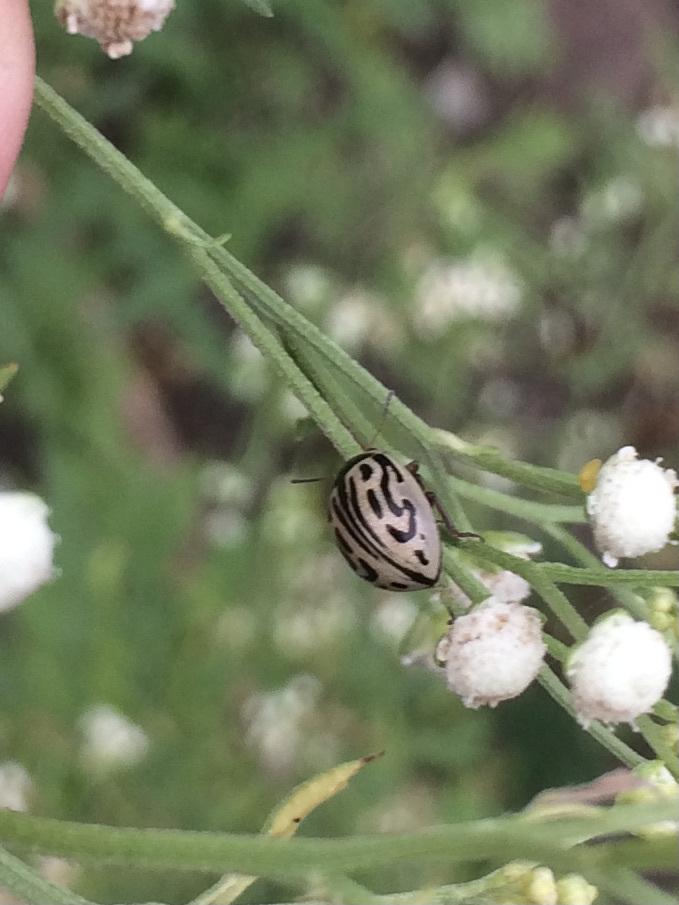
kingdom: Animalia
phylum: Arthropoda
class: Insecta
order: Coleoptera
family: Chrysomelidae
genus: Calligrapha
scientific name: Calligrapha
